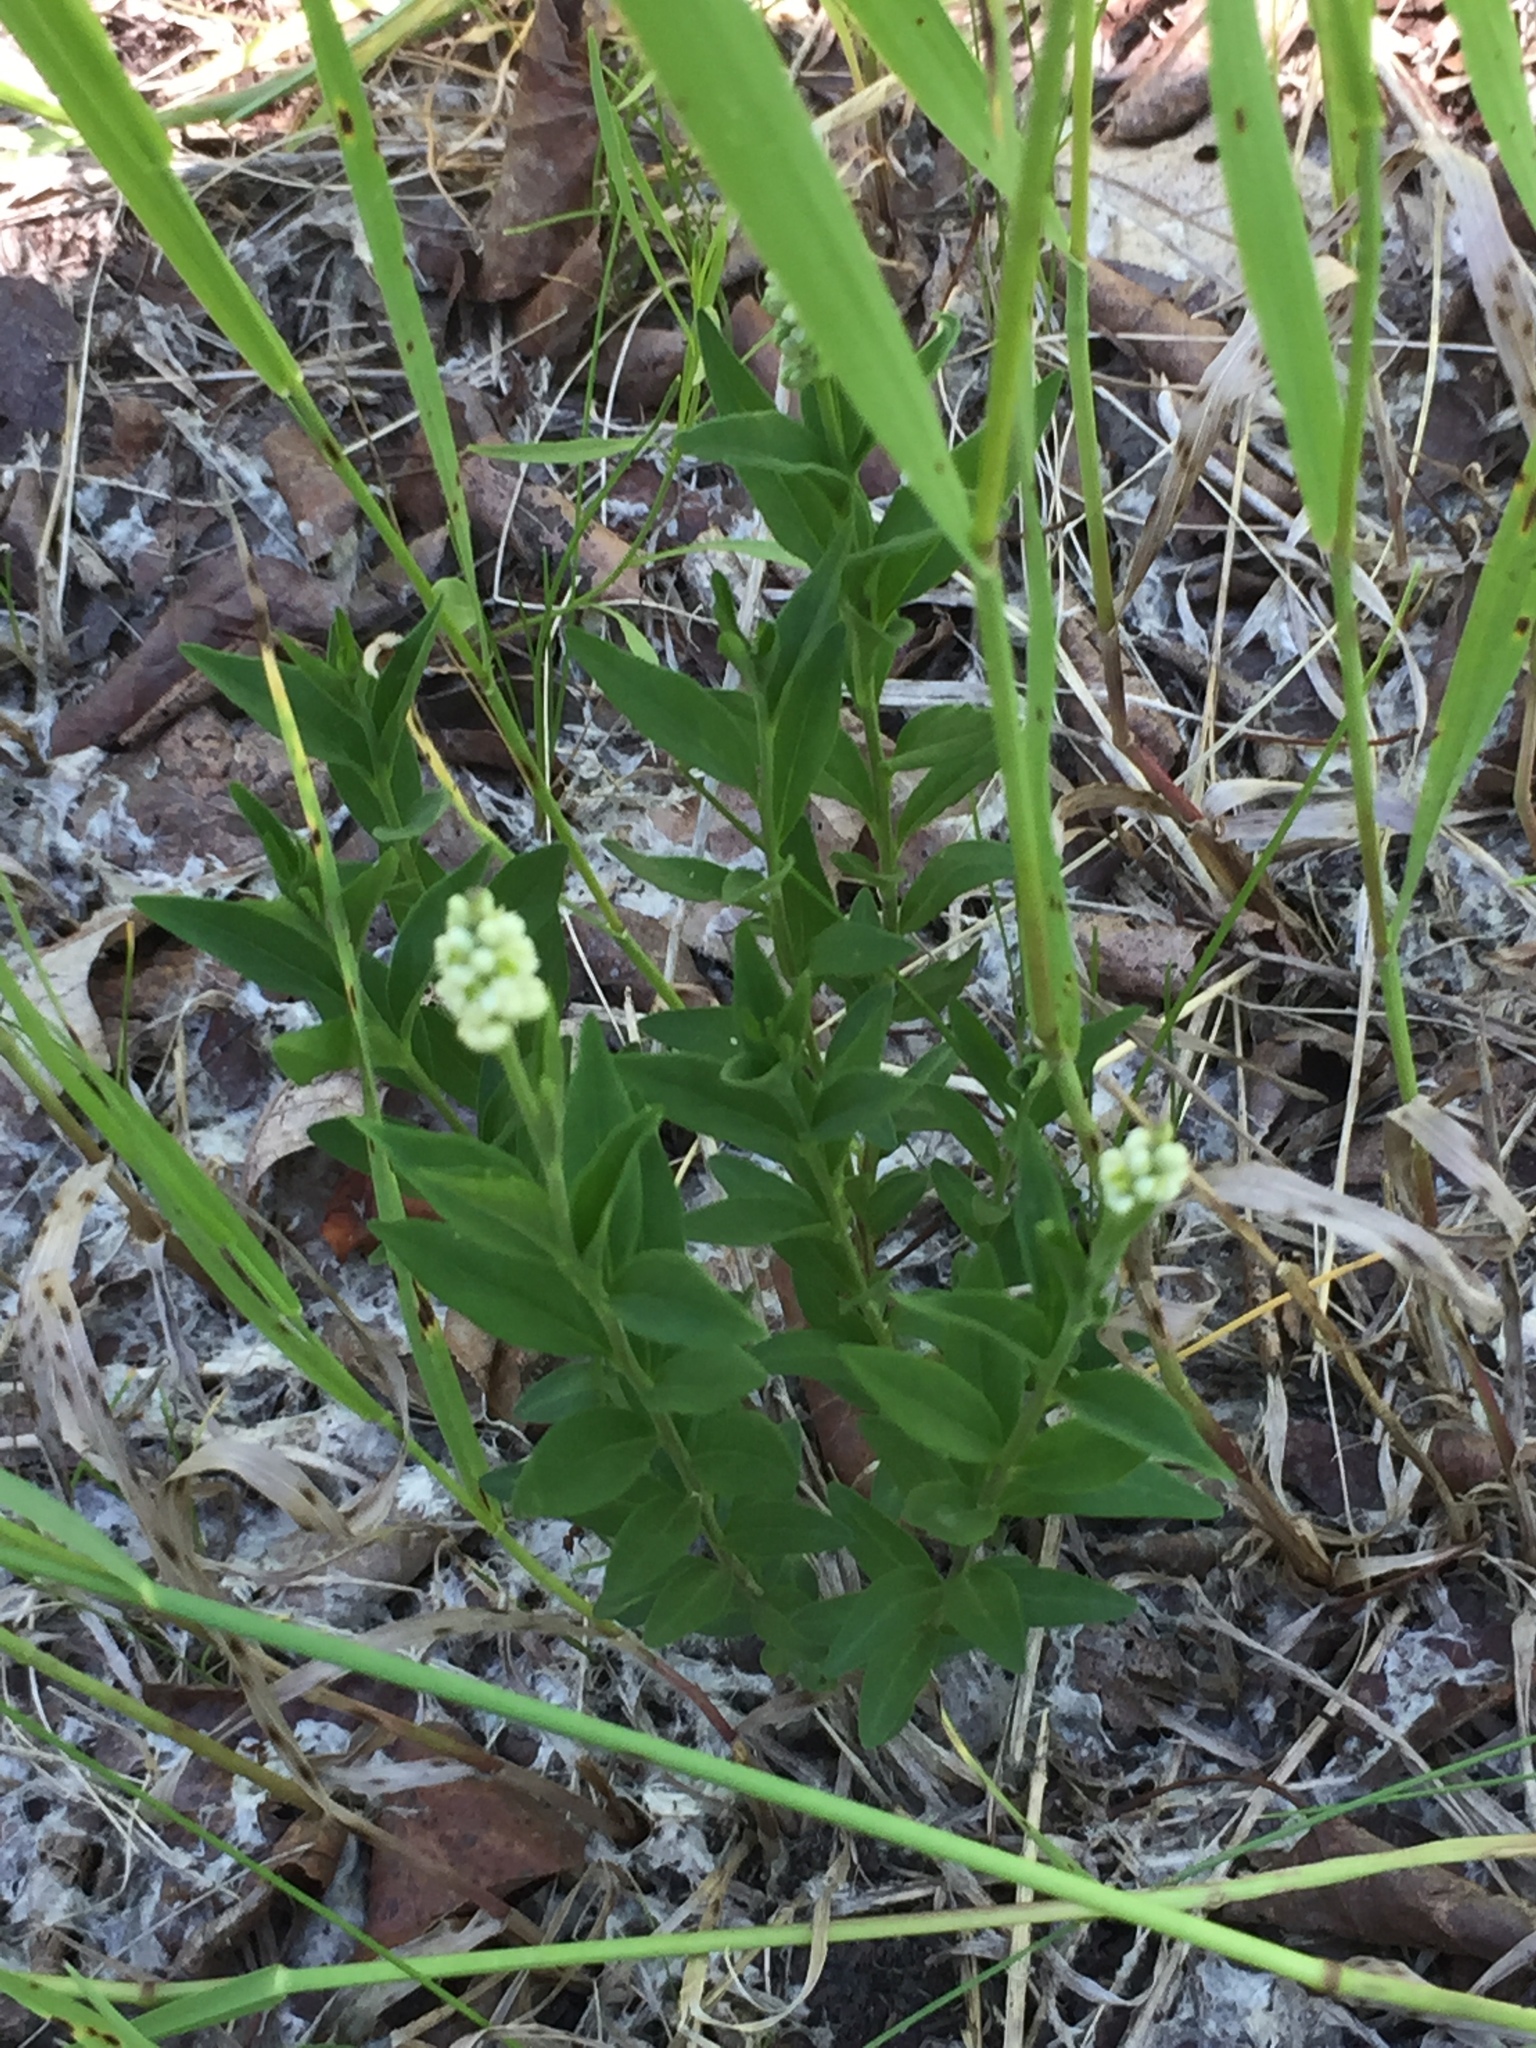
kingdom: Plantae
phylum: Tracheophyta
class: Magnoliopsida
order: Fabales
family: Polygalaceae
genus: Polygala
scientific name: Polygala senega
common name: Seneca snakeroot
